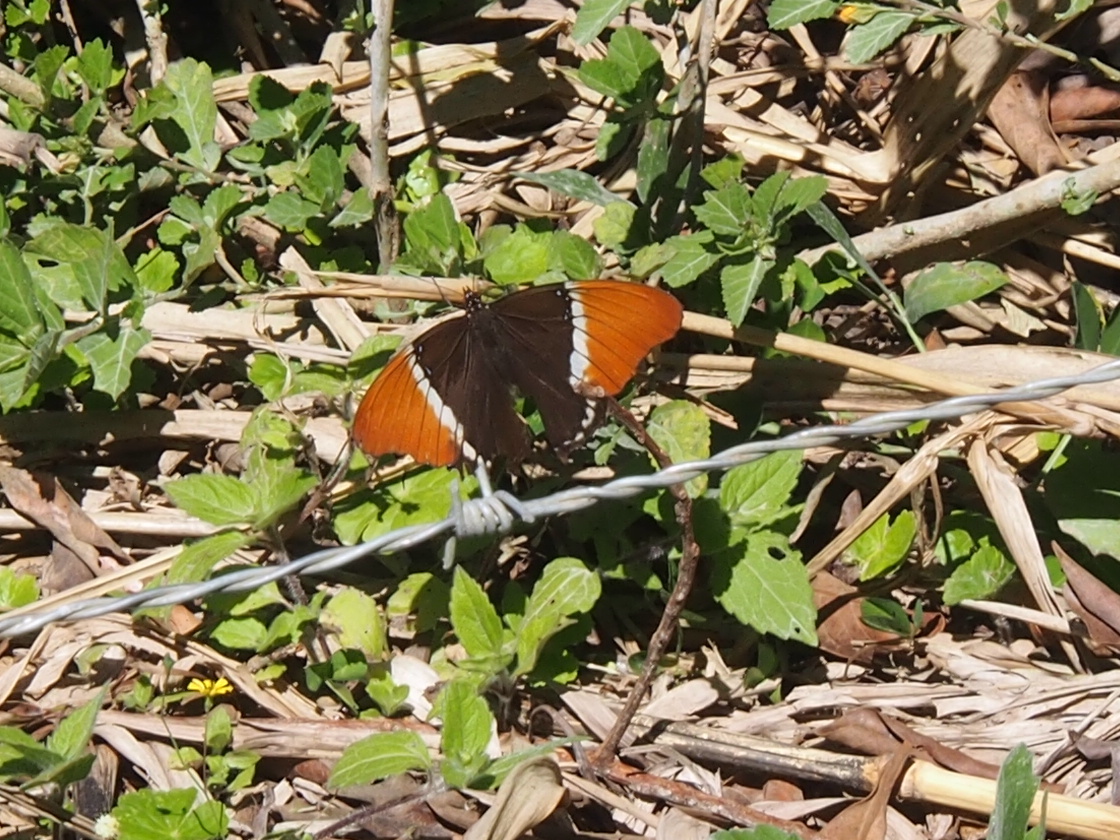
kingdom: Animalia
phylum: Arthropoda
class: Insecta
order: Lepidoptera
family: Nymphalidae
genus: Siproeta
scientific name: Siproeta epaphus
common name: Rusty-tipped page
